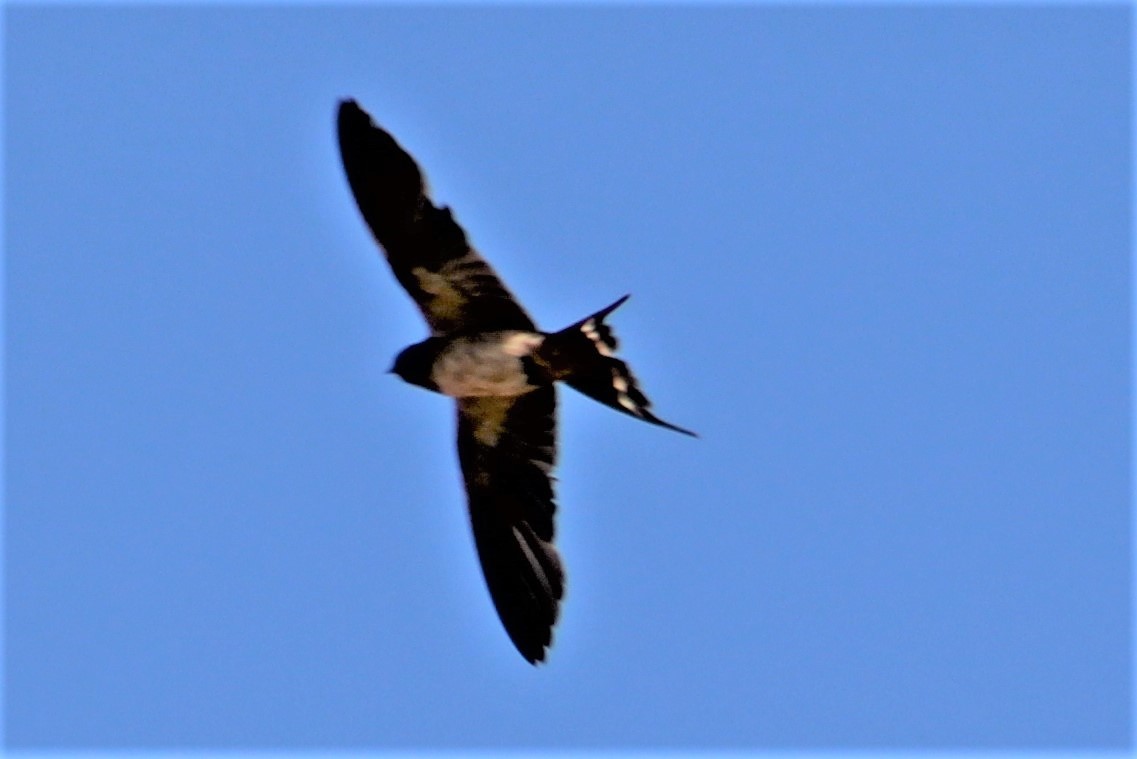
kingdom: Animalia
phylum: Chordata
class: Aves
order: Passeriformes
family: Hirundinidae
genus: Hirundo
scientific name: Hirundo rustica
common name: Barn swallow
